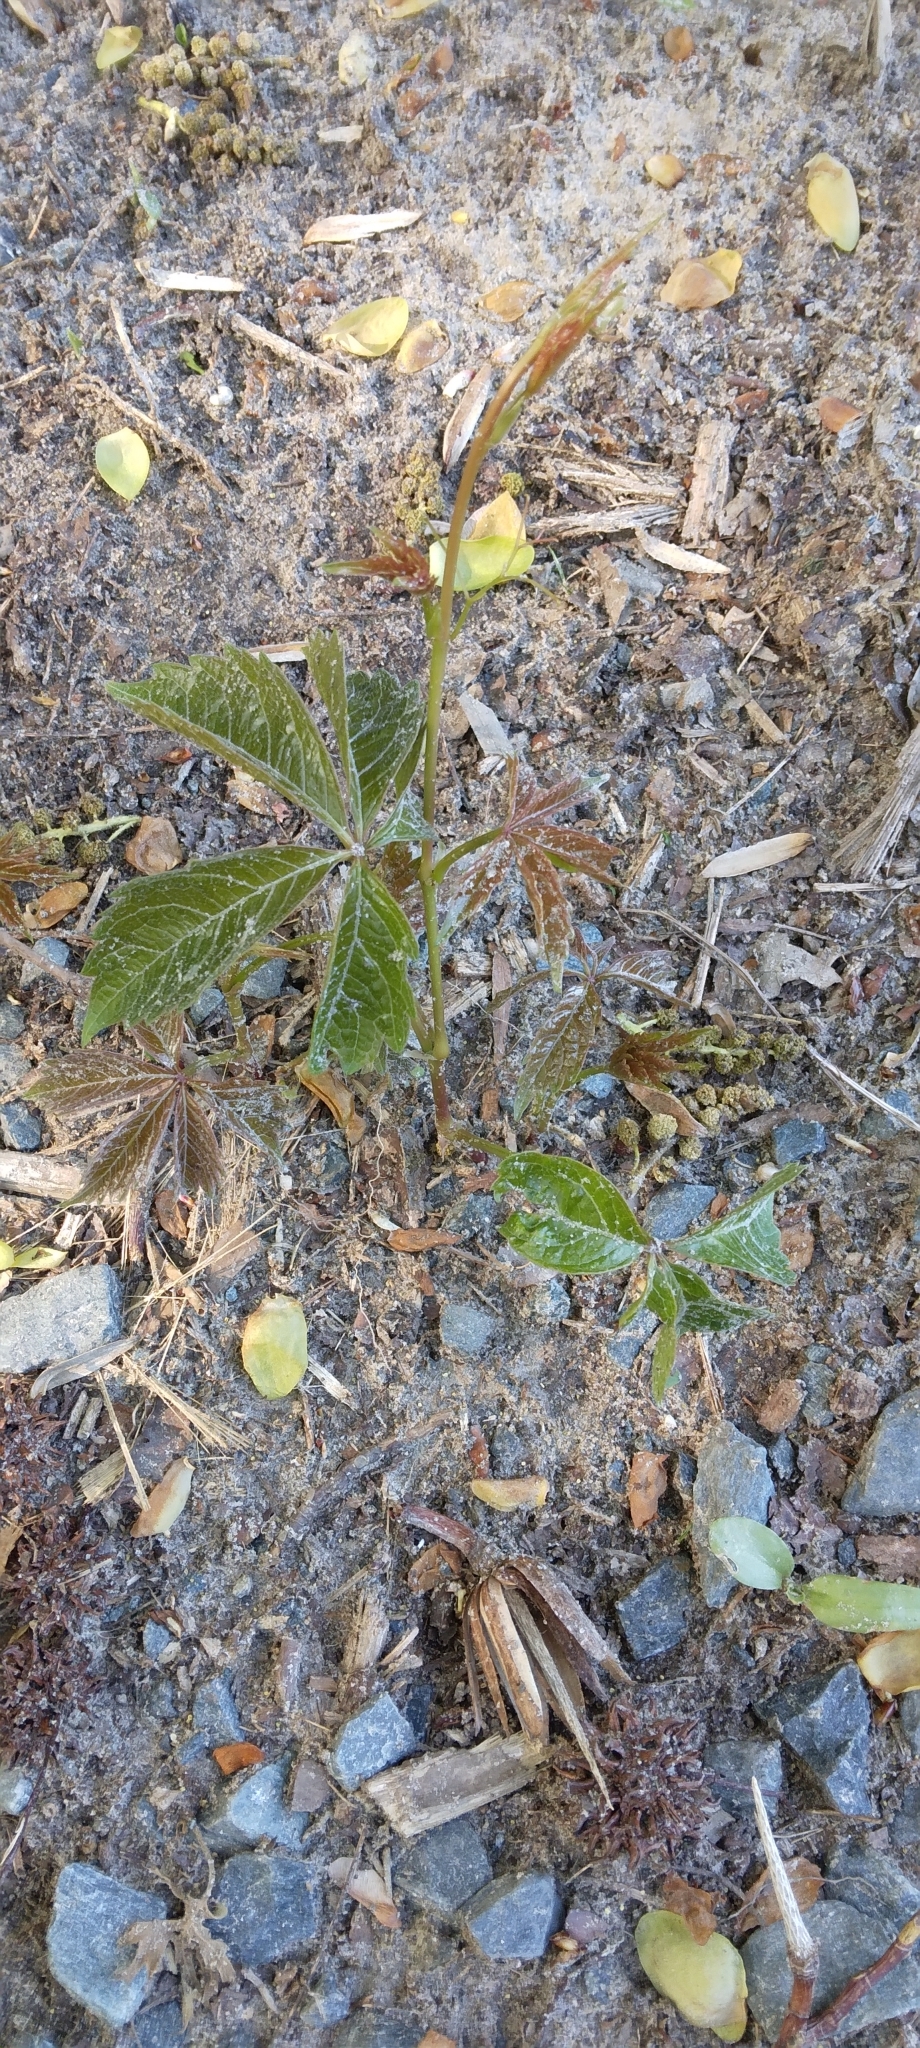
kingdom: Plantae
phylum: Tracheophyta
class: Magnoliopsida
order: Vitales
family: Vitaceae
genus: Parthenocissus
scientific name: Parthenocissus quinquefolia
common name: Virginia-creeper
